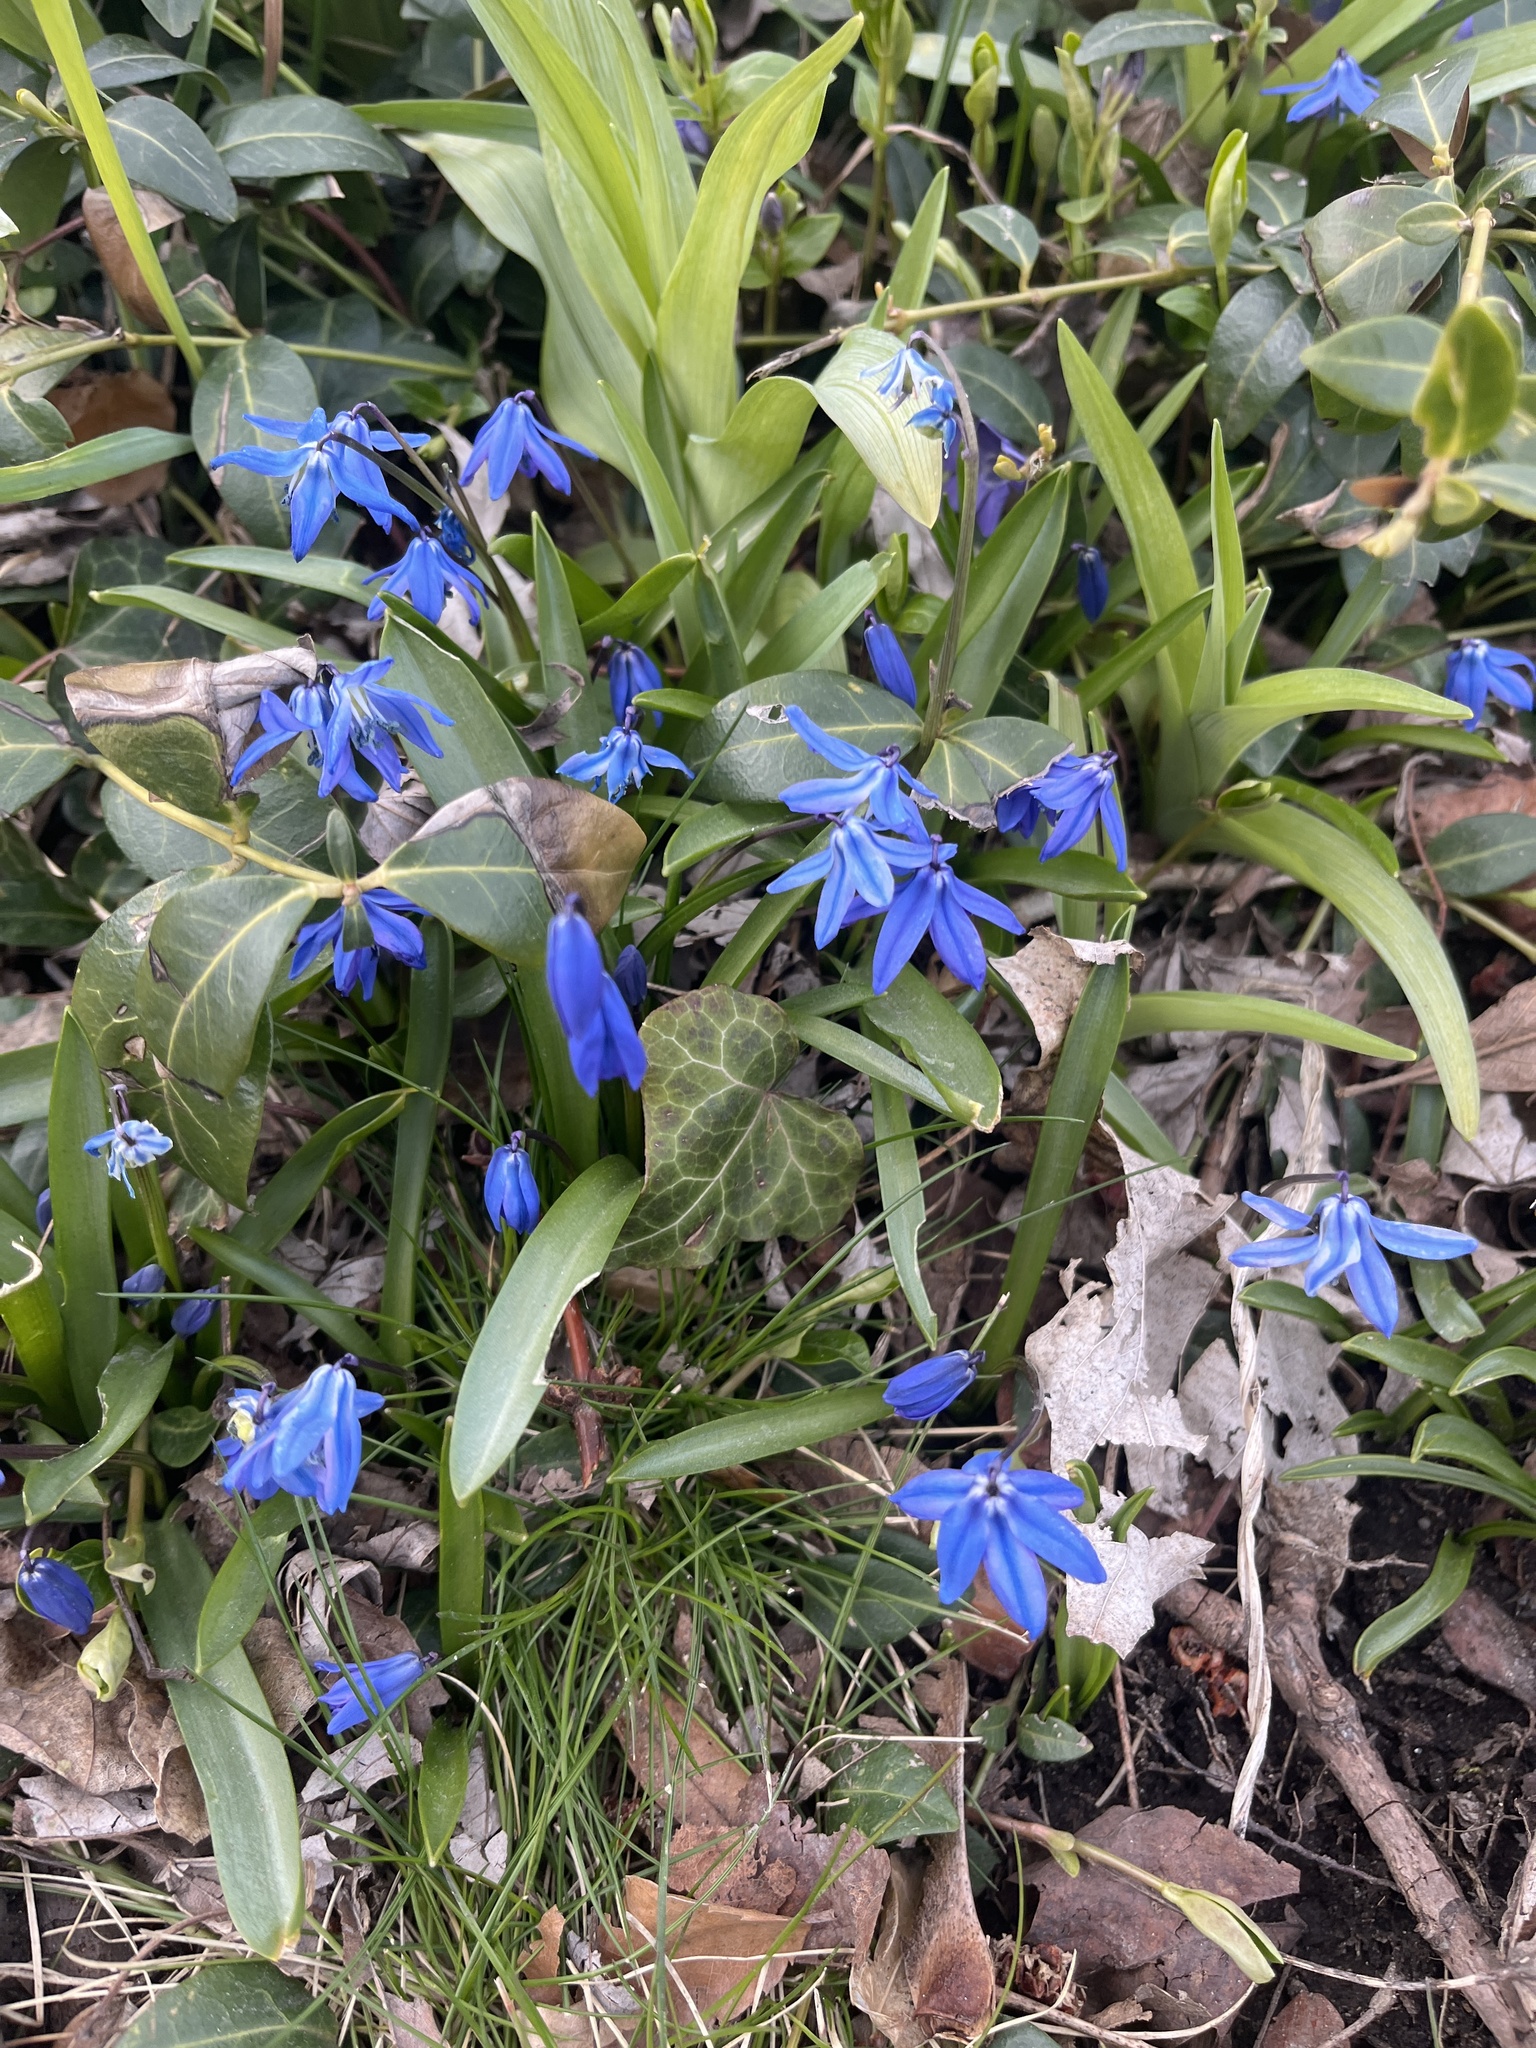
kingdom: Plantae
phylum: Tracheophyta
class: Liliopsida
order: Asparagales
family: Asparagaceae
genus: Scilla
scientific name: Scilla siberica
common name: Siberian squill
